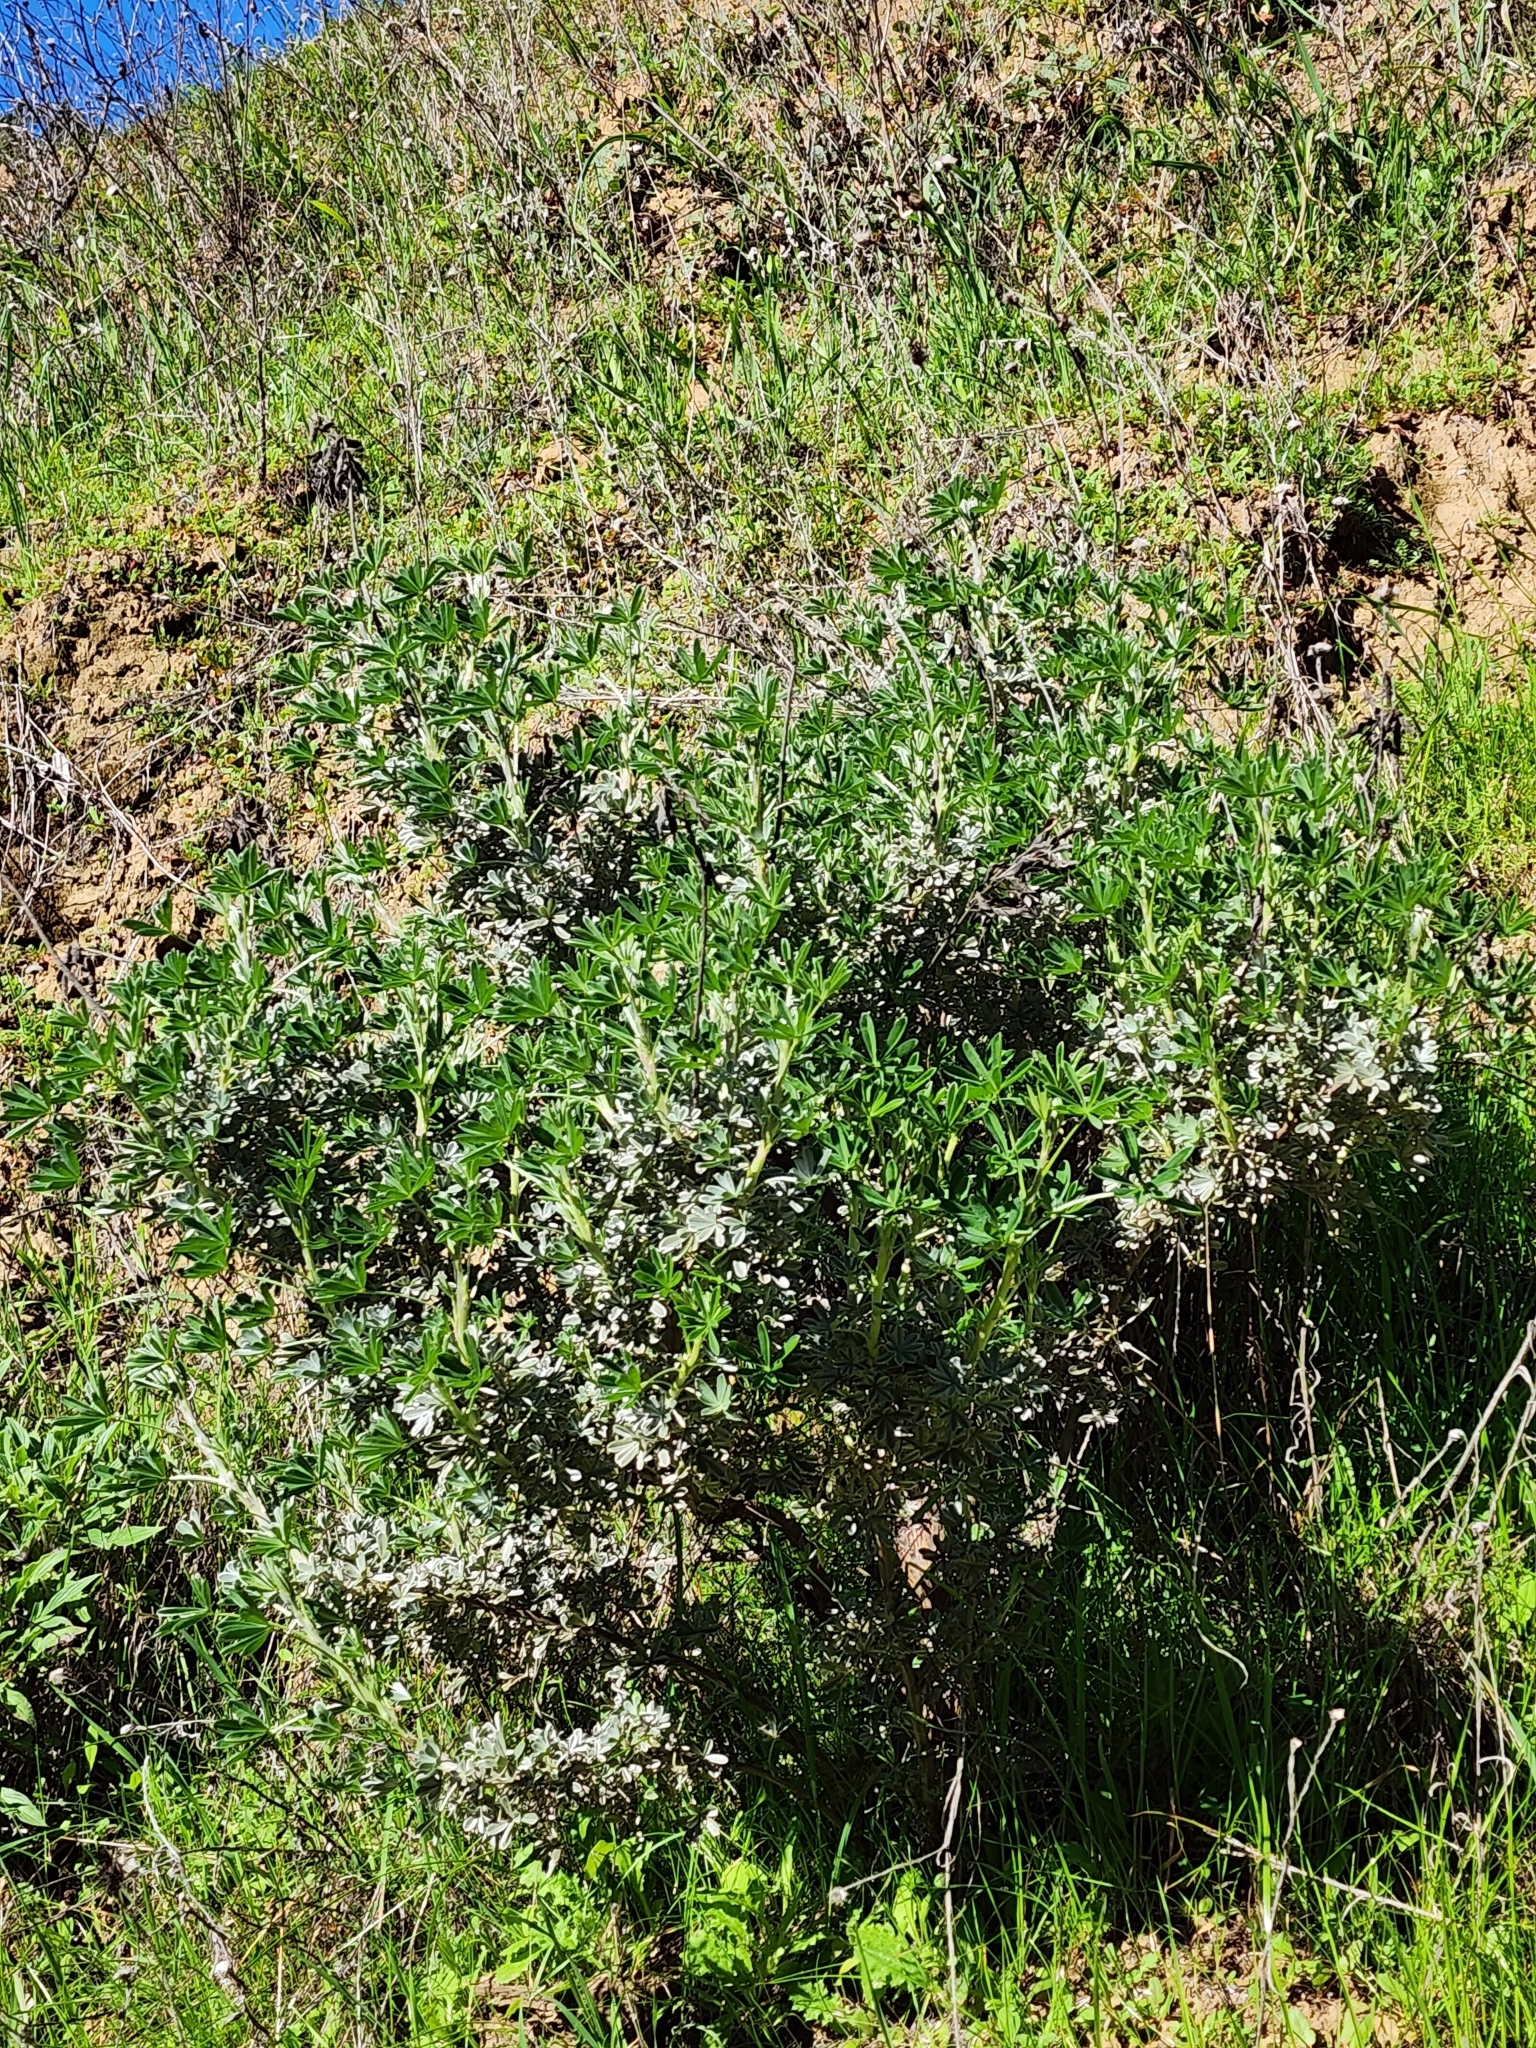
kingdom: Plantae
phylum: Tracheophyta
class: Magnoliopsida
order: Fabales
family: Fabaceae
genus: Lupinus
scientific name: Lupinus albifrons
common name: Foothill lupine
